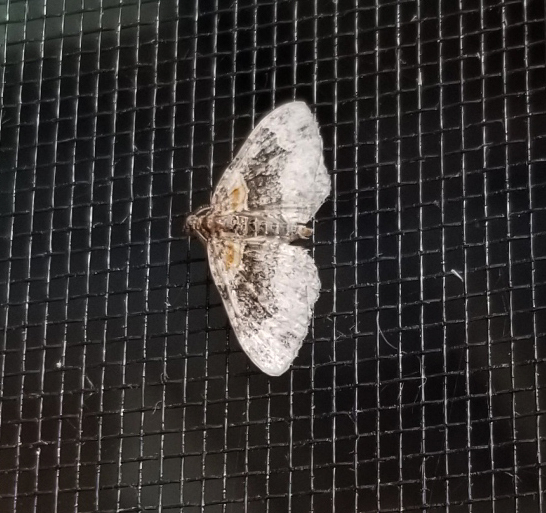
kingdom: Animalia
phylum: Arthropoda
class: Insecta
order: Lepidoptera
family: Geometridae
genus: Xanthorhoe
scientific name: Xanthorhoe ferrugata
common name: Dark-barred twin-spot carpet
